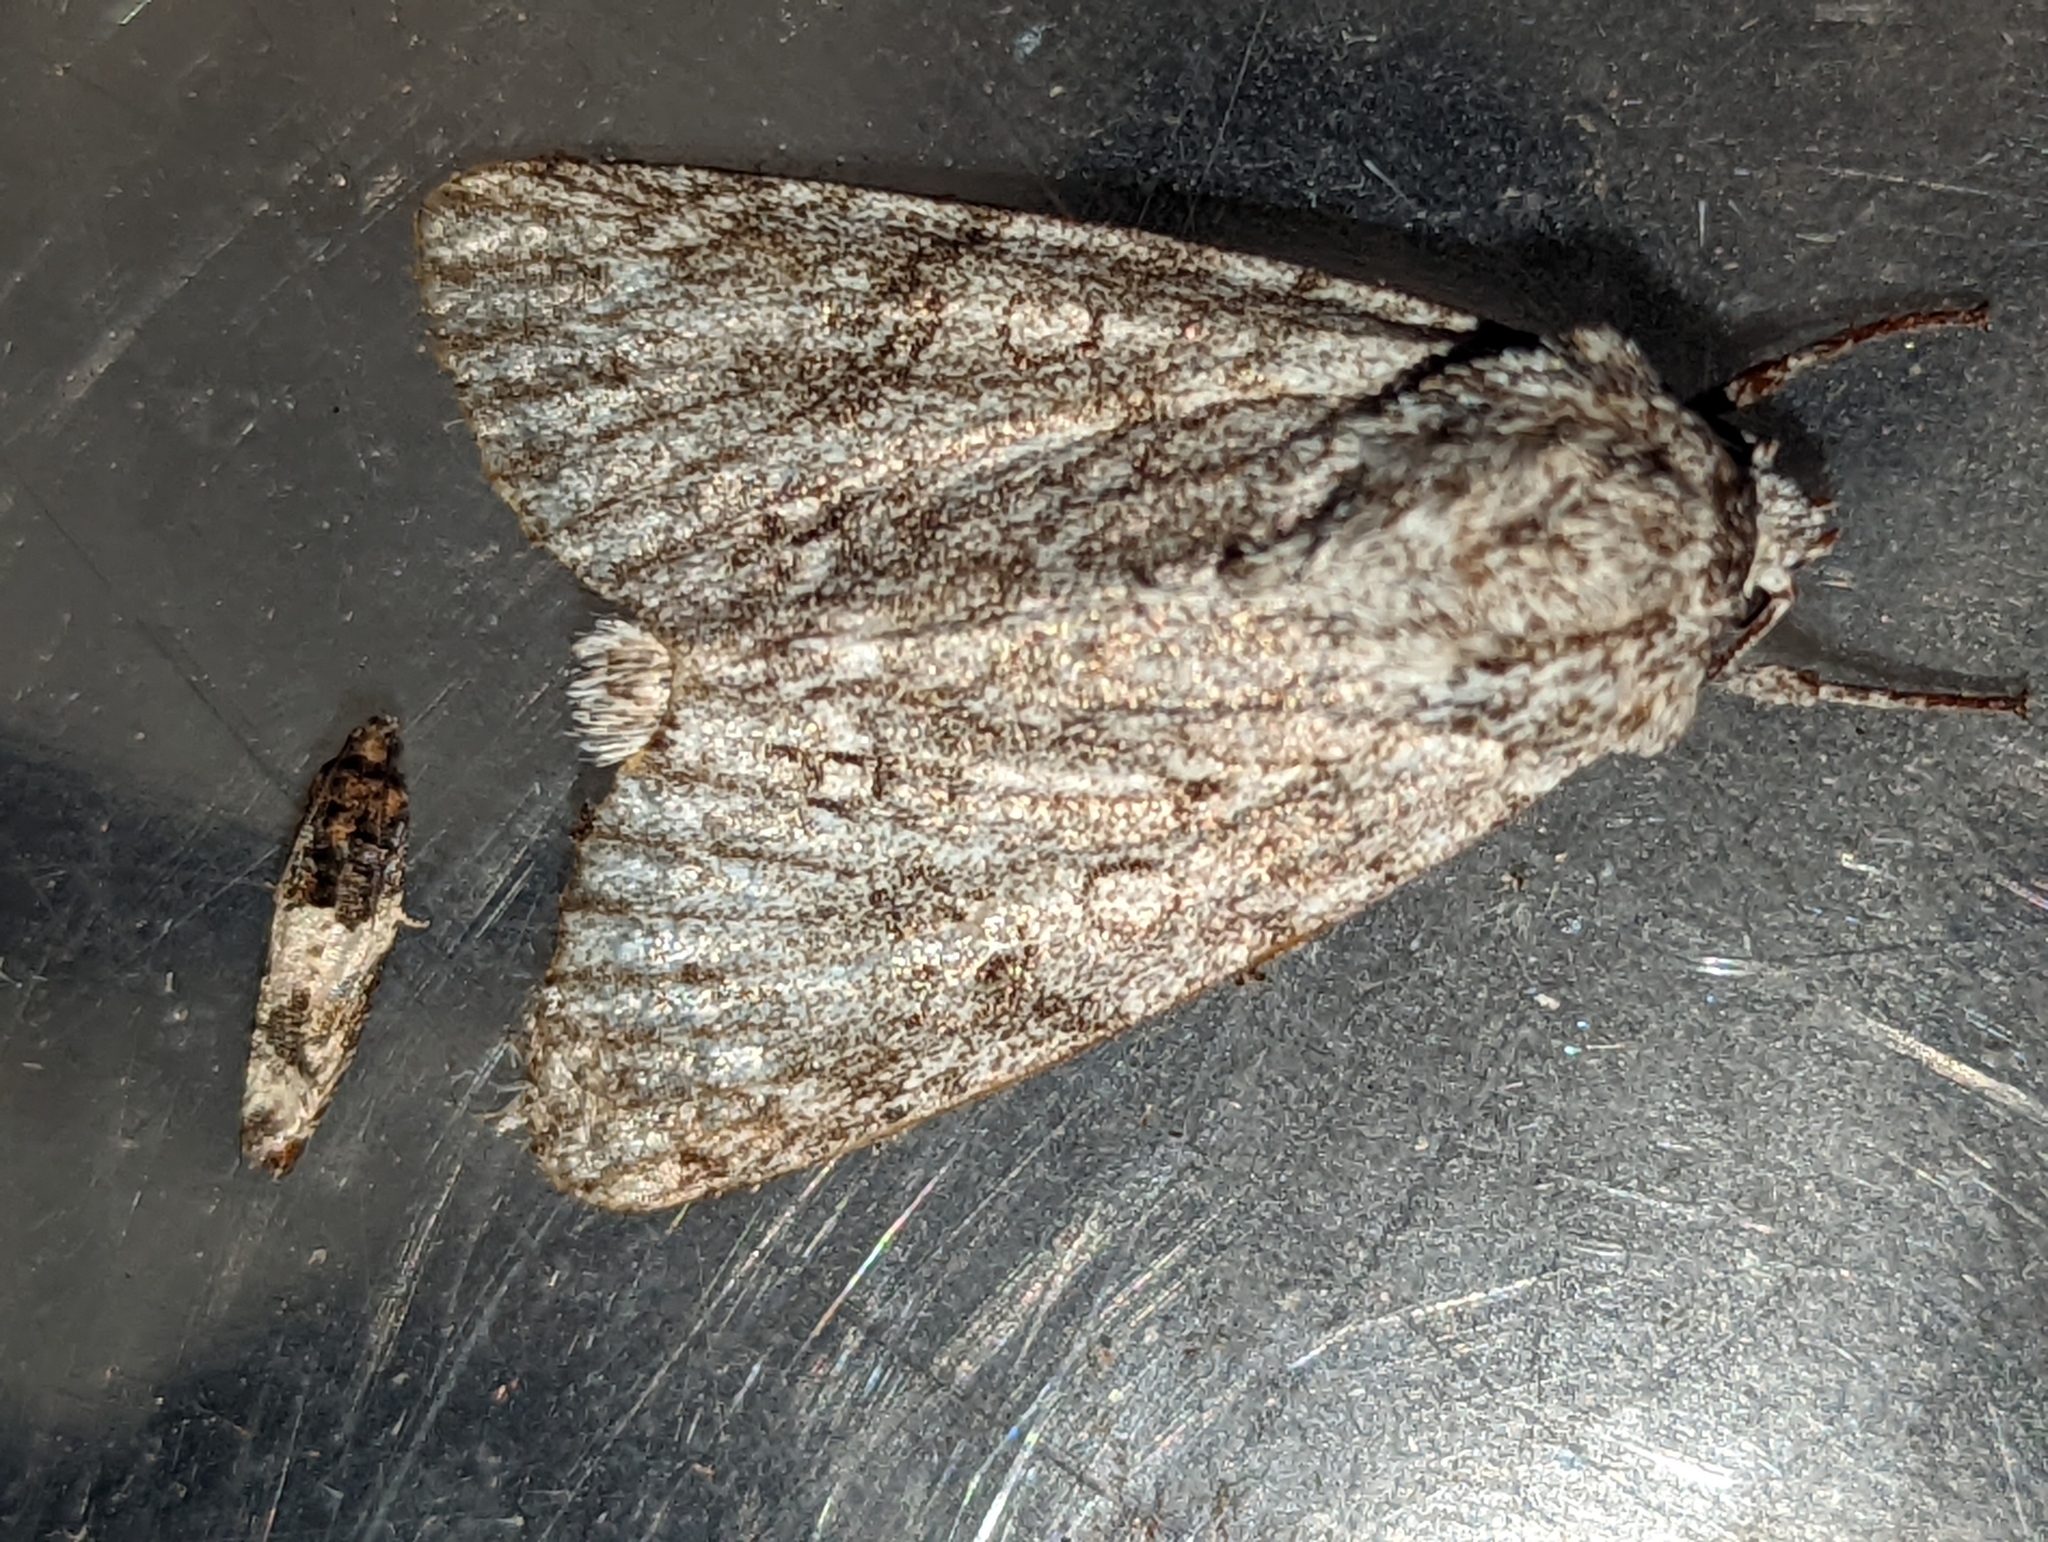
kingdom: Animalia
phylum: Arthropoda
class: Insecta
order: Lepidoptera
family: Noctuidae
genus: Acronicta
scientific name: Acronicta megacephala
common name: Poplar grey
